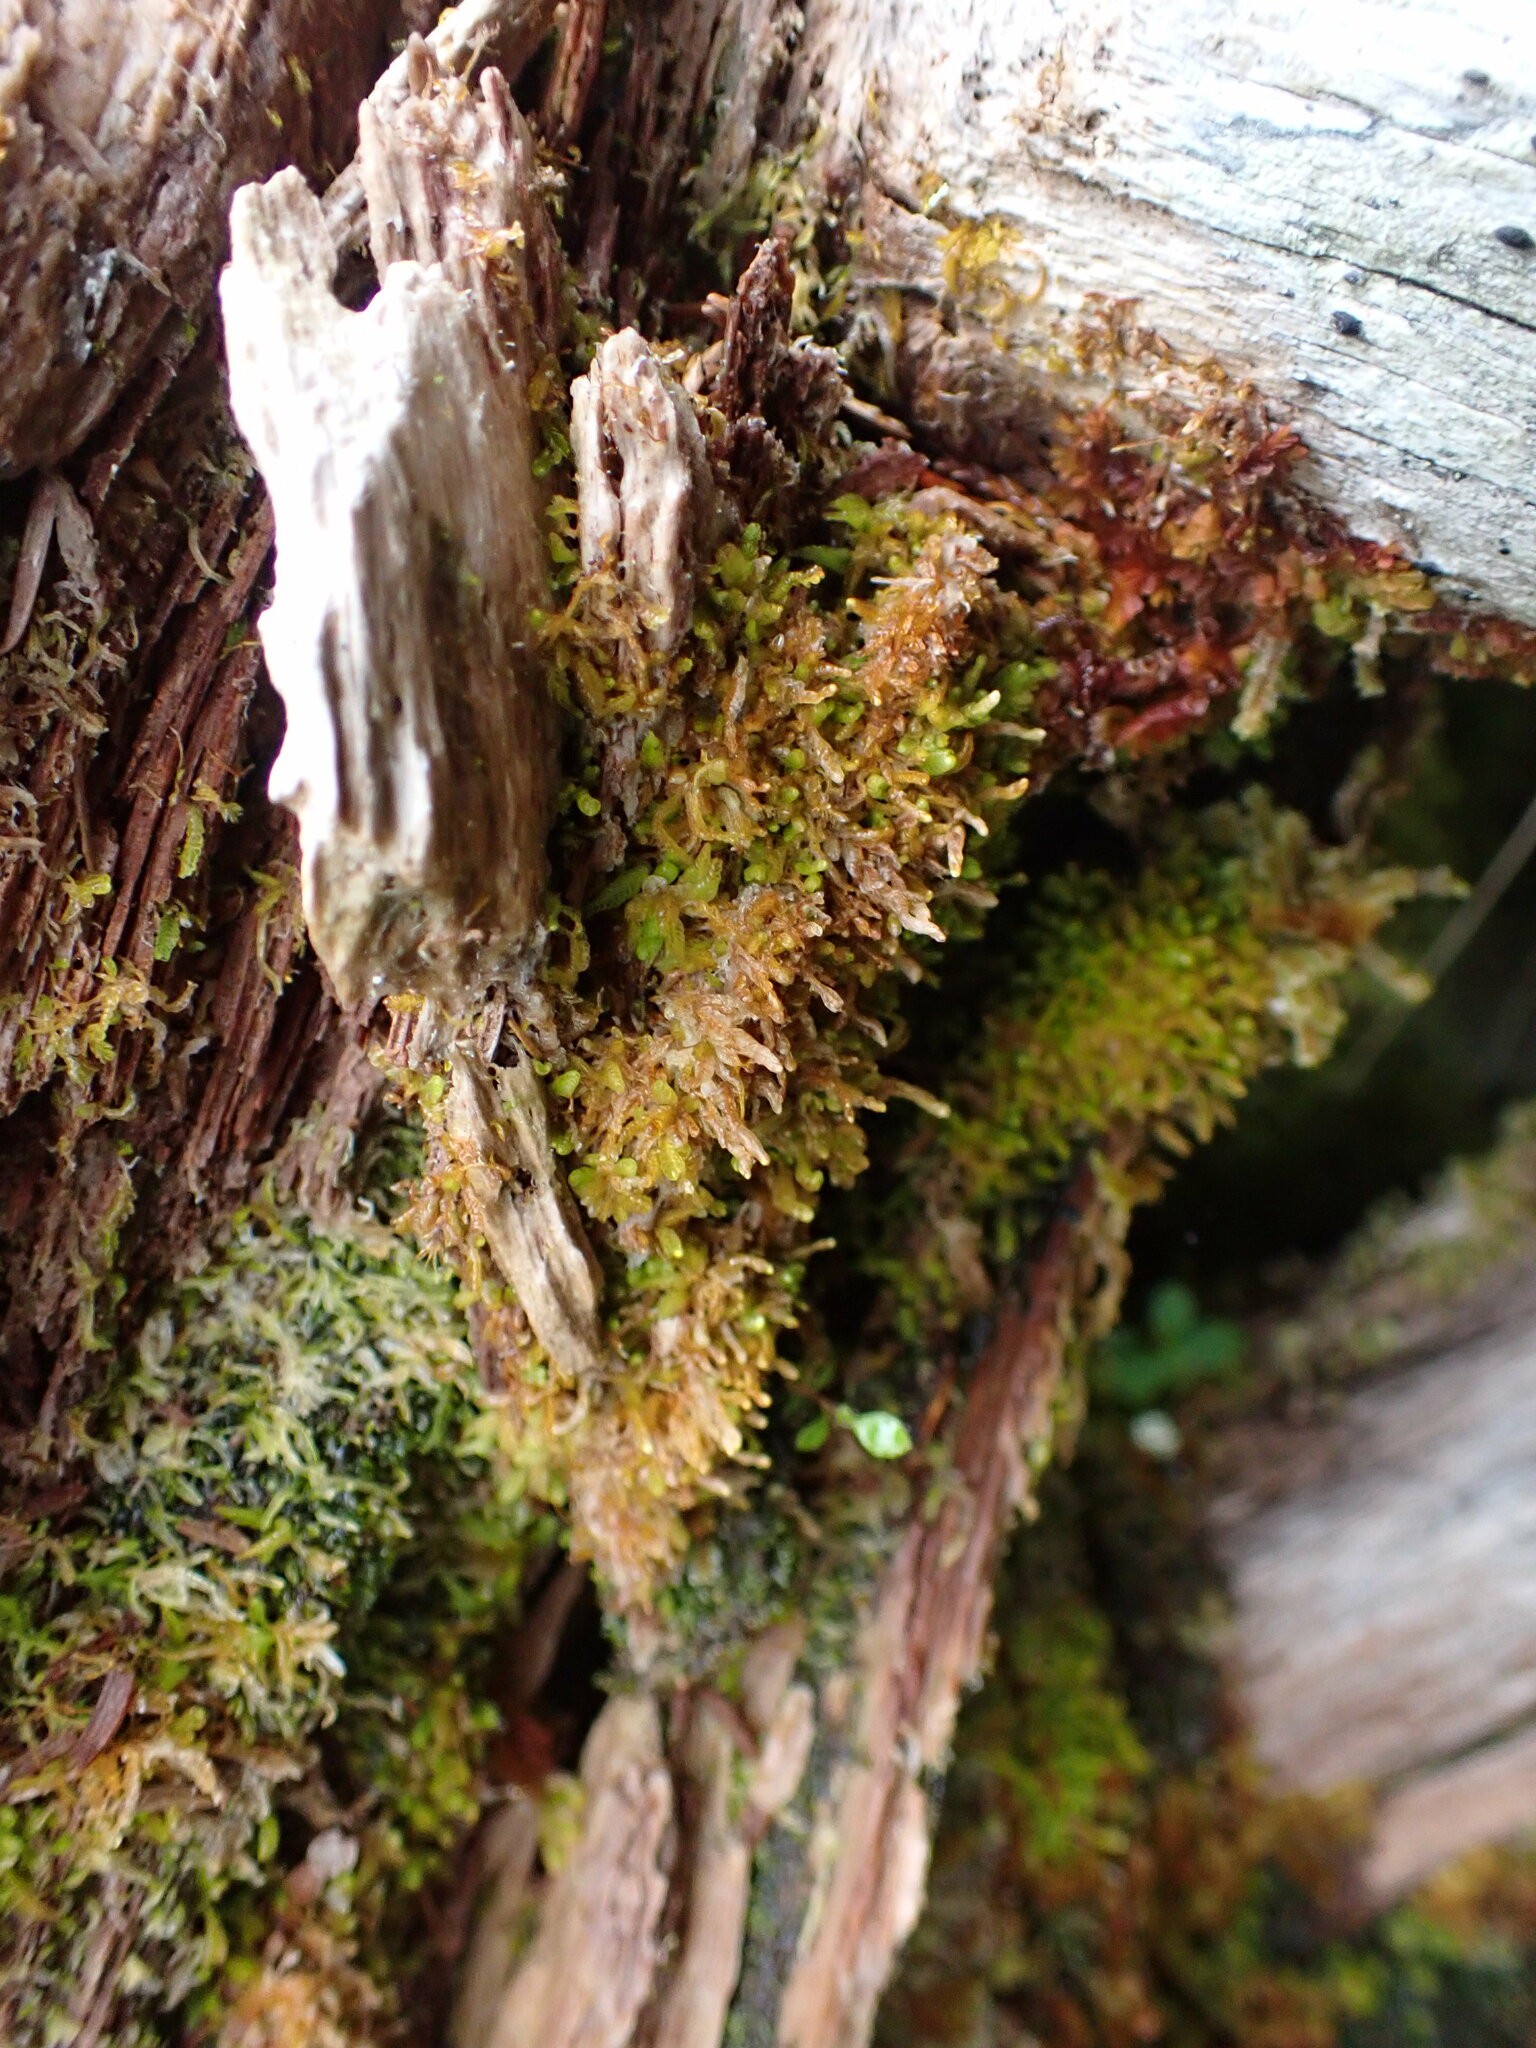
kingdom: Plantae
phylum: Marchantiophyta
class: Jungermanniopsida
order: Jungermanniales
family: Cephaloziaceae
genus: Odontoschisma
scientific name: Odontoschisma denudatum
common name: Matchstick flapwort
